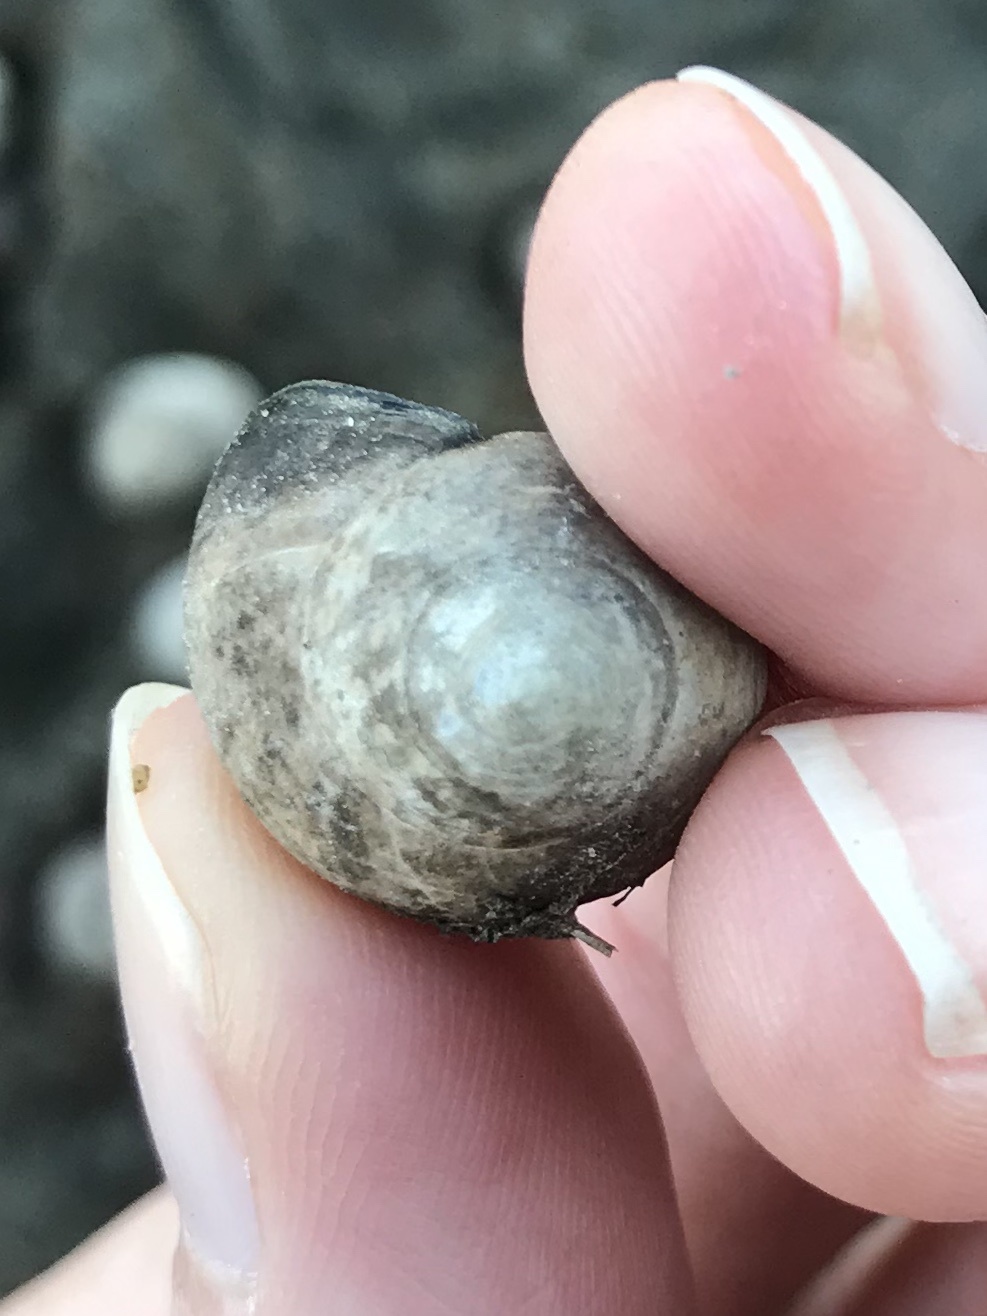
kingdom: Animalia
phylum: Mollusca
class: Gastropoda
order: Littorinimorpha
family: Littorinidae
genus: Littorina
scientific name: Littorina littorea
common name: Common periwinkle
